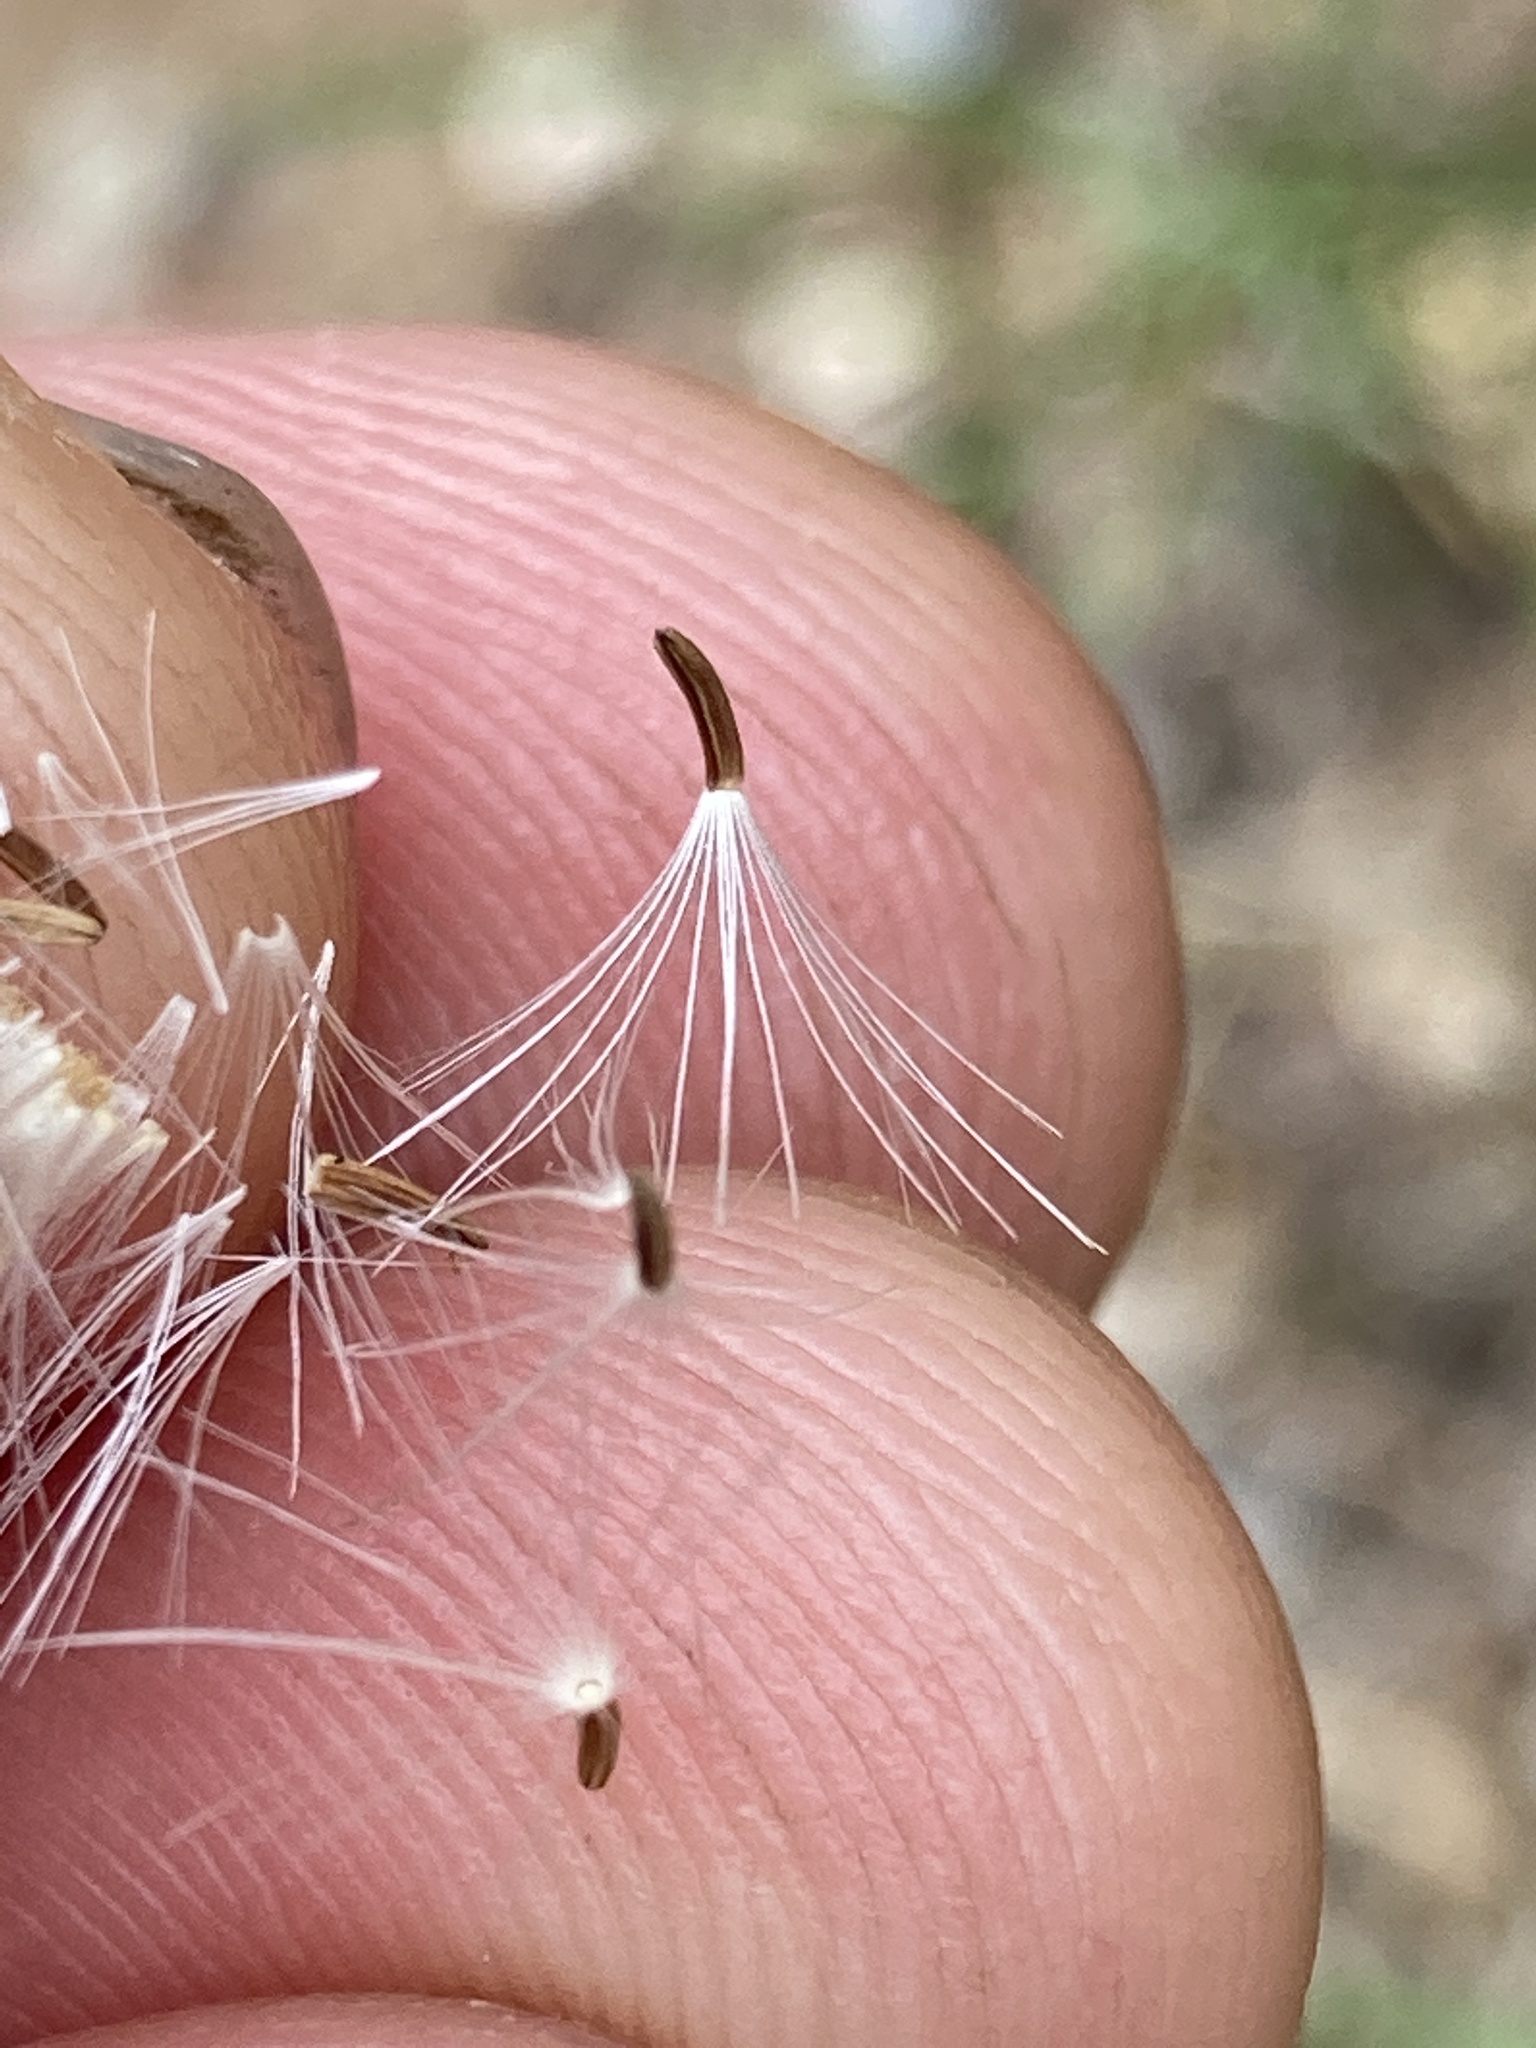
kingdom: Plantae
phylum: Tracheophyta
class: Magnoliopsida
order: Asterales
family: Asteraceae
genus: Malacothrix
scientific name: Malacothrix saxatilis
